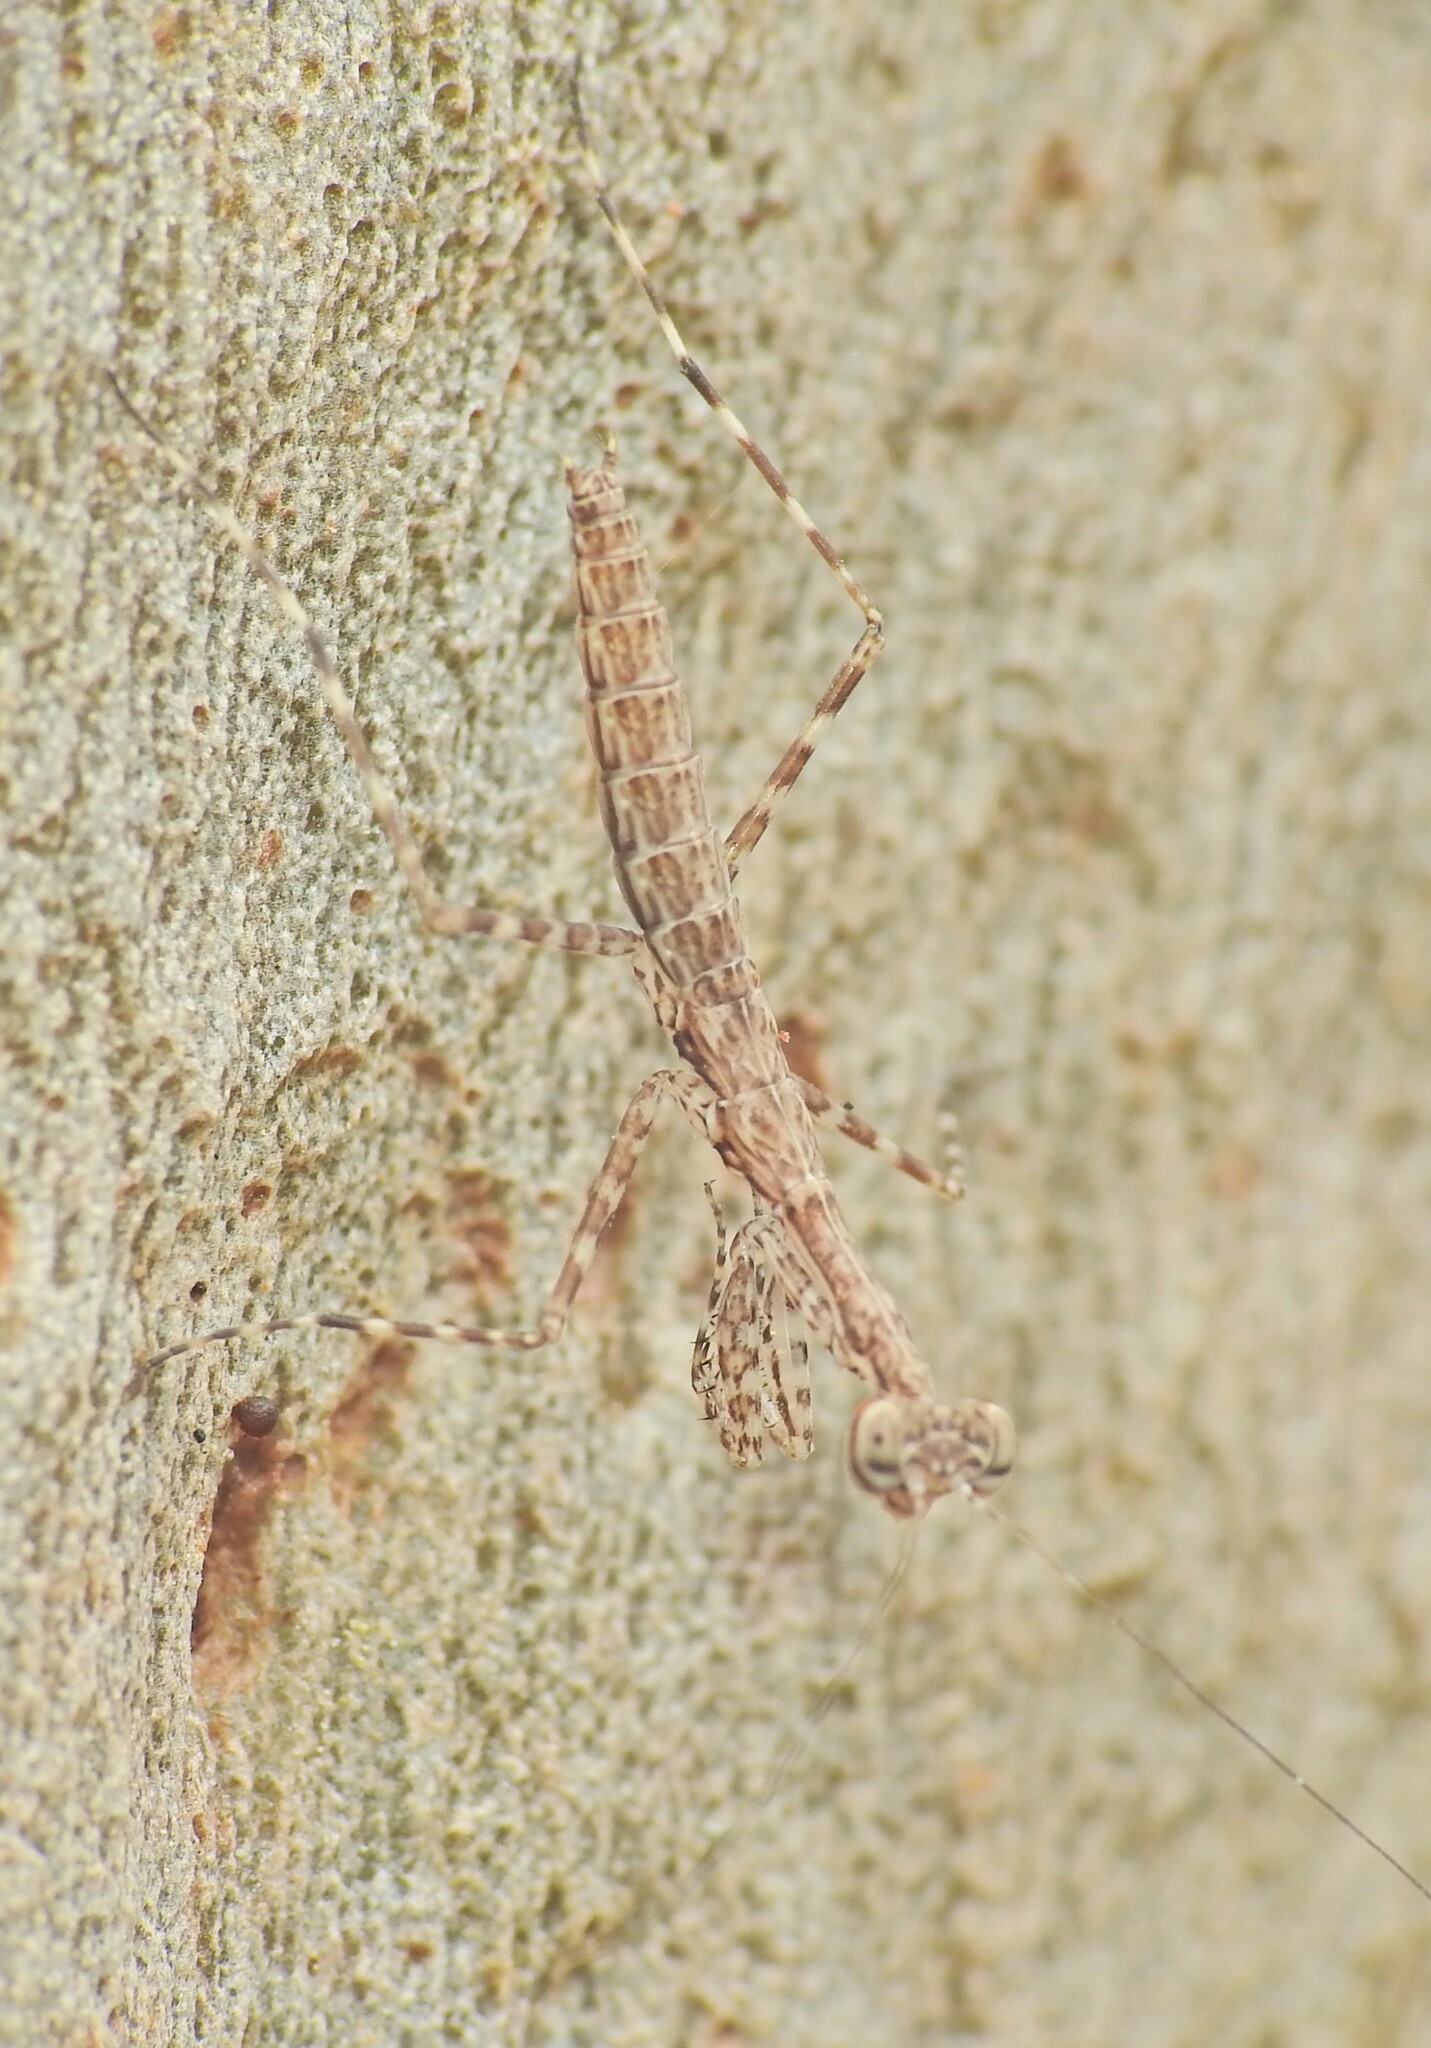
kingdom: Animalia
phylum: Arthropoda
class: Insecta
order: Mantodea
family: Nanomantidae
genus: Ciulfina
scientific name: Ciulfina baldersoni
